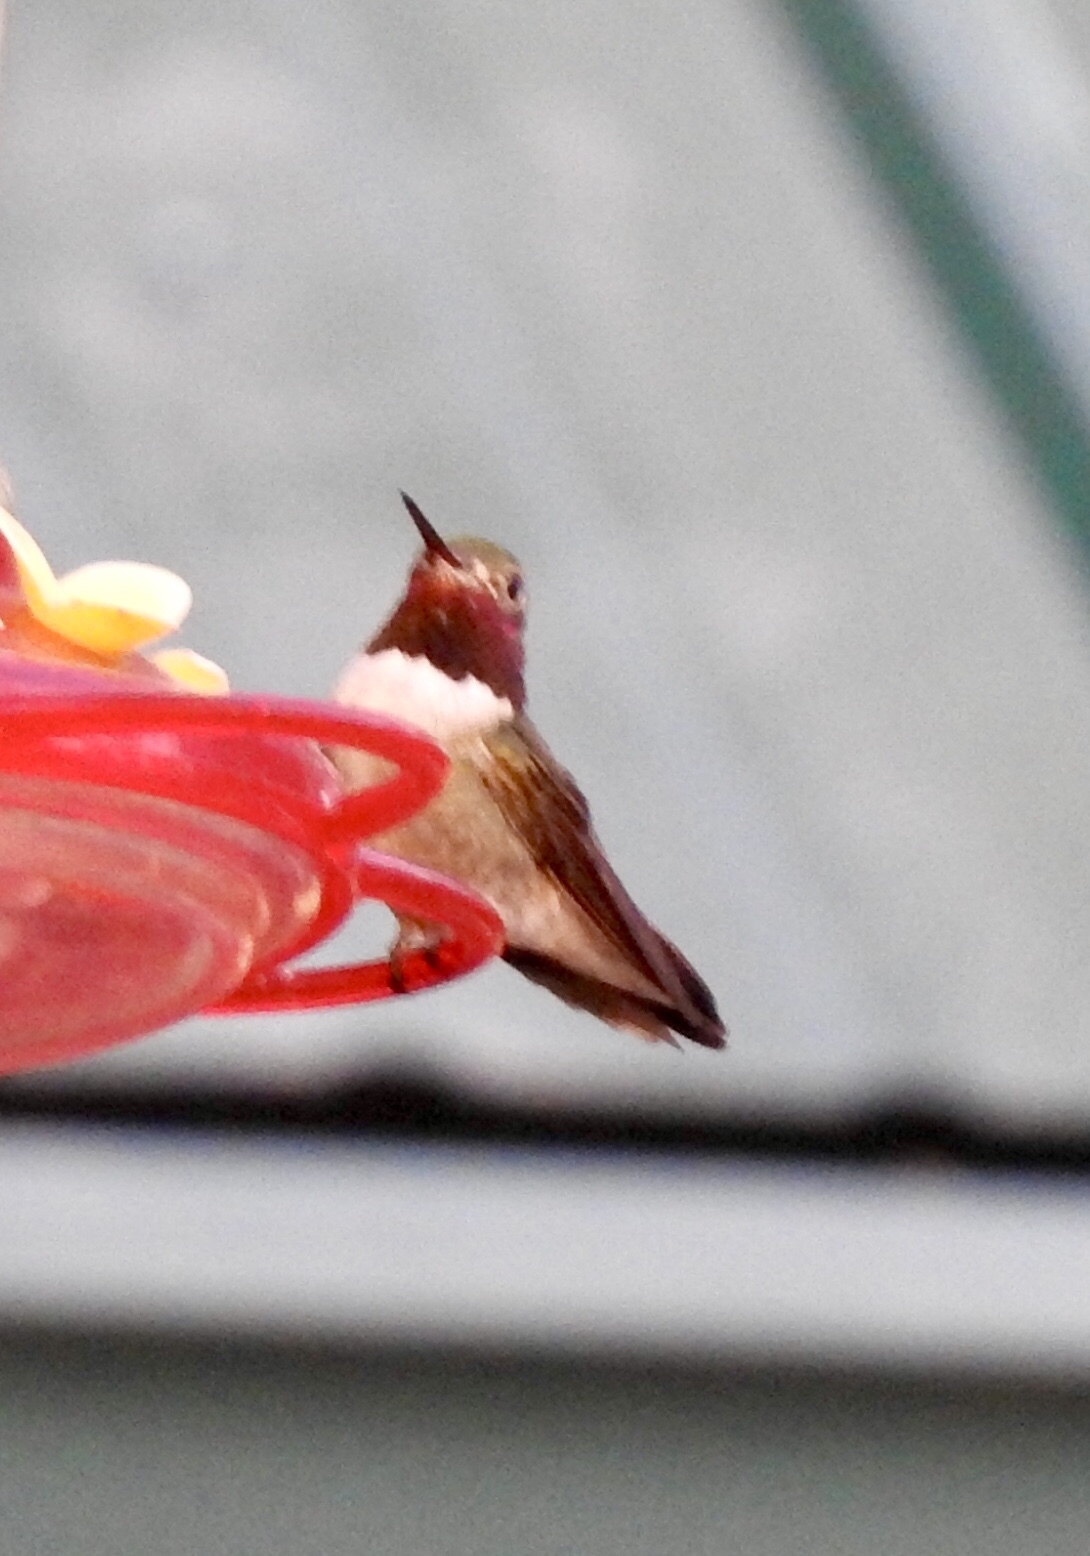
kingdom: Animalia
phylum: Chordata
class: Aves
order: Apodiformes
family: Trochilidae
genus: Selasphorus
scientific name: Selasphorus platycercus
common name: Broad-tailed hummingbird
